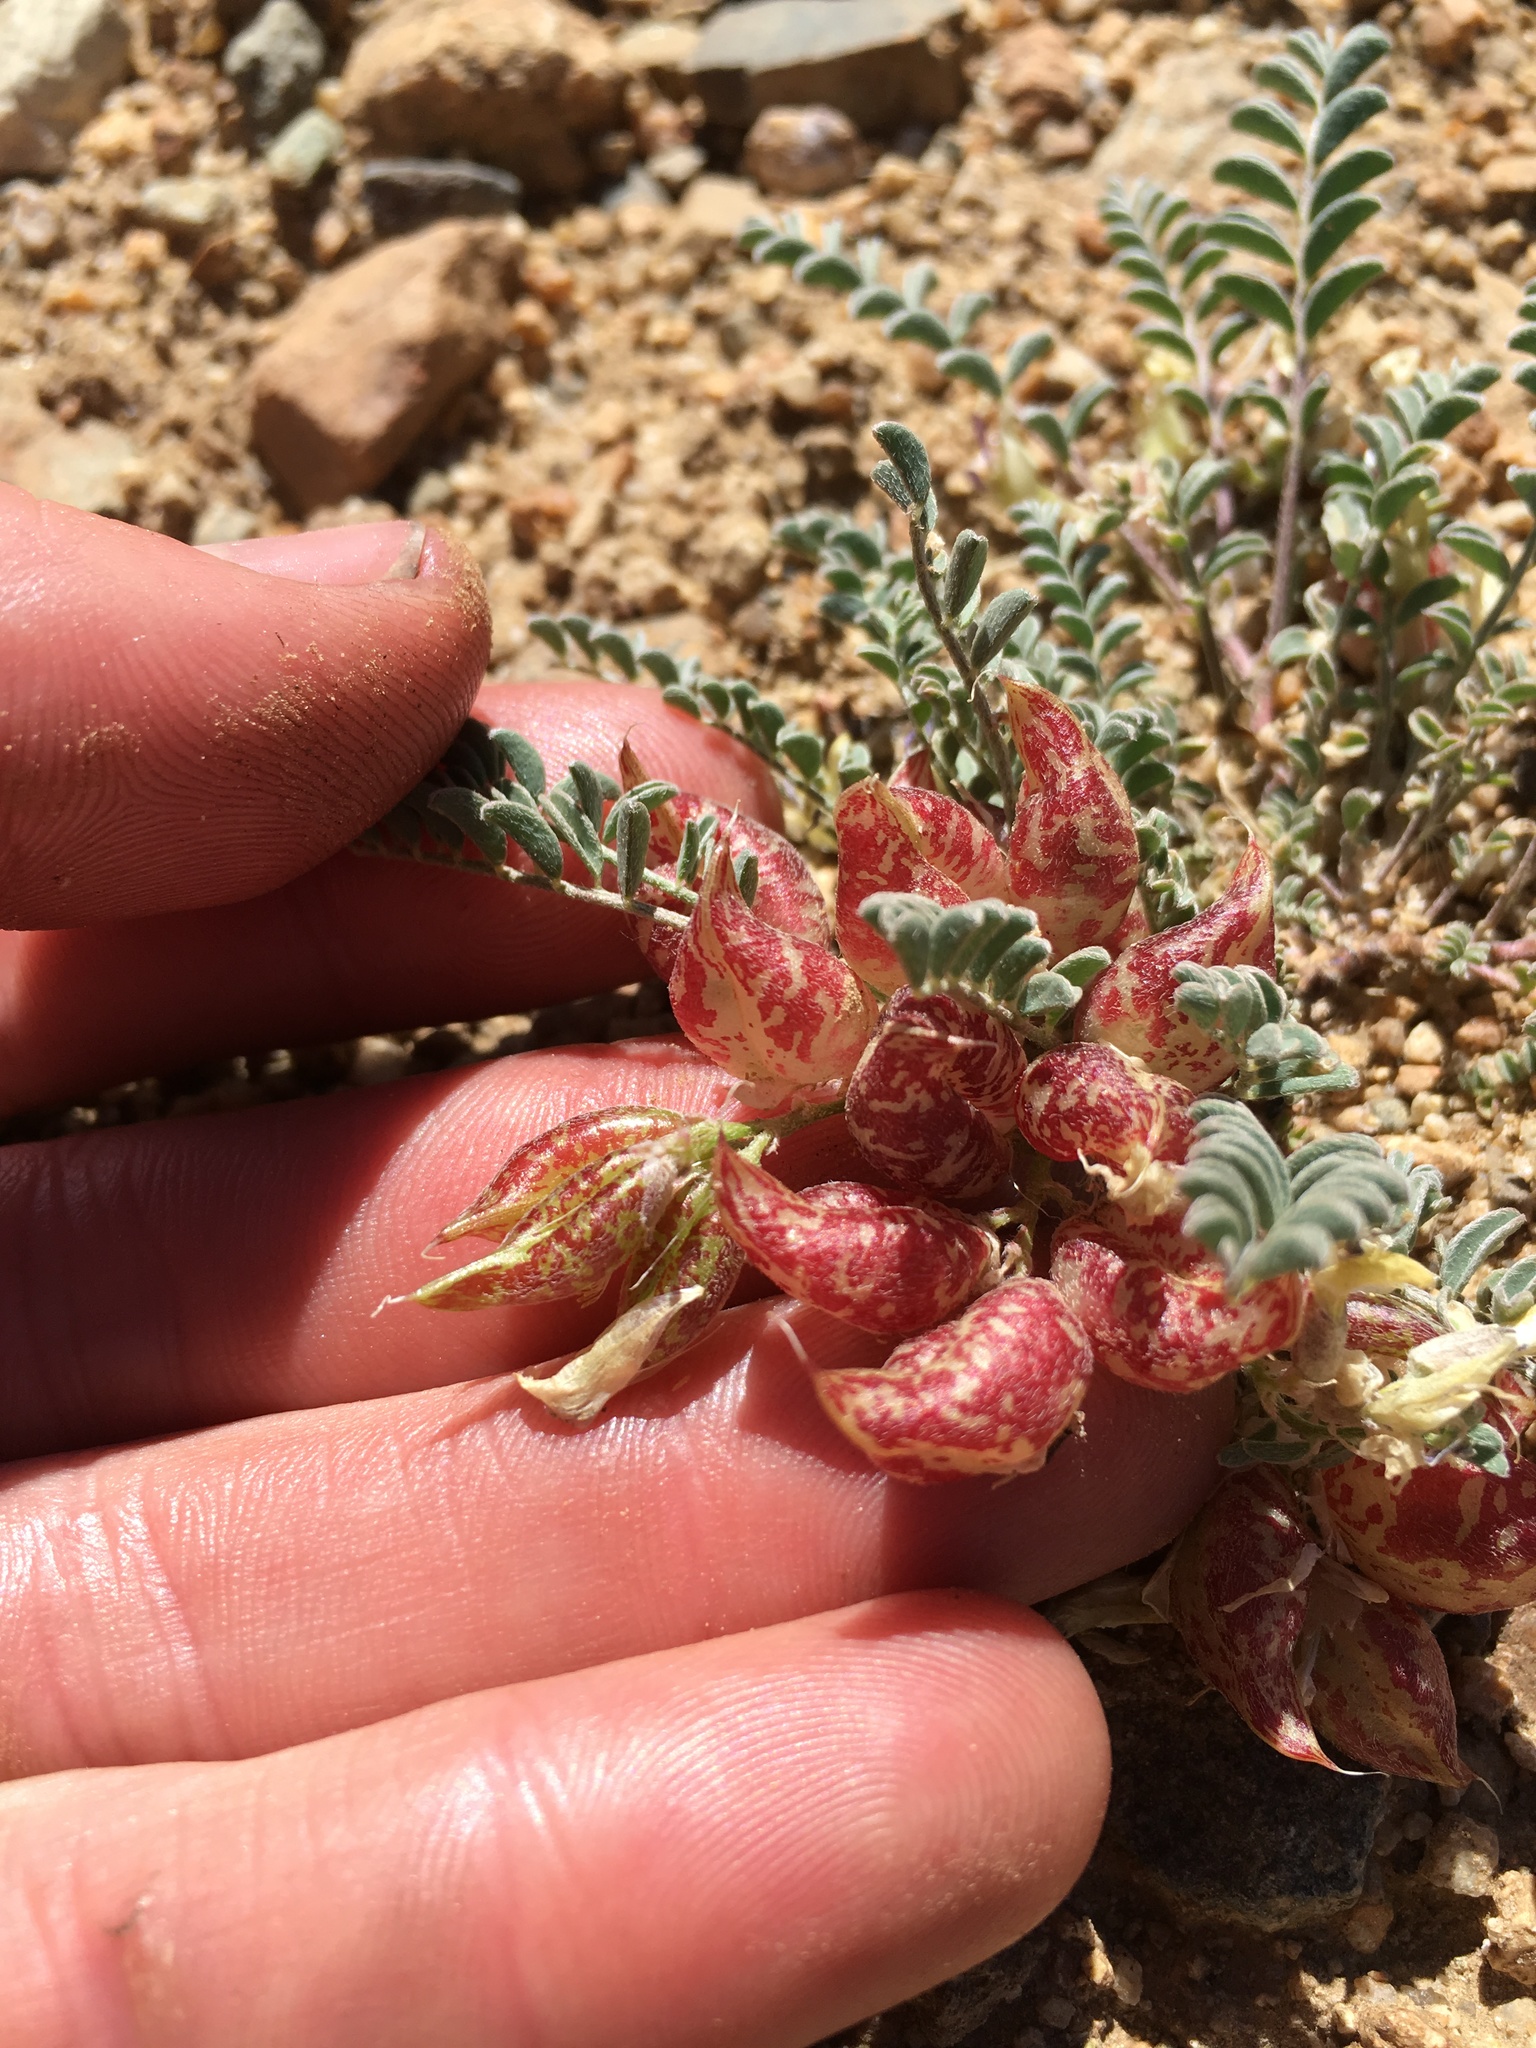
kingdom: Plantae
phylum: Tracheophyta
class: Magnoliopsida
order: Fabales
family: Fabaceae
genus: Astragalus
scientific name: Astragalus lentiginosus
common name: Freckled milkvetch
